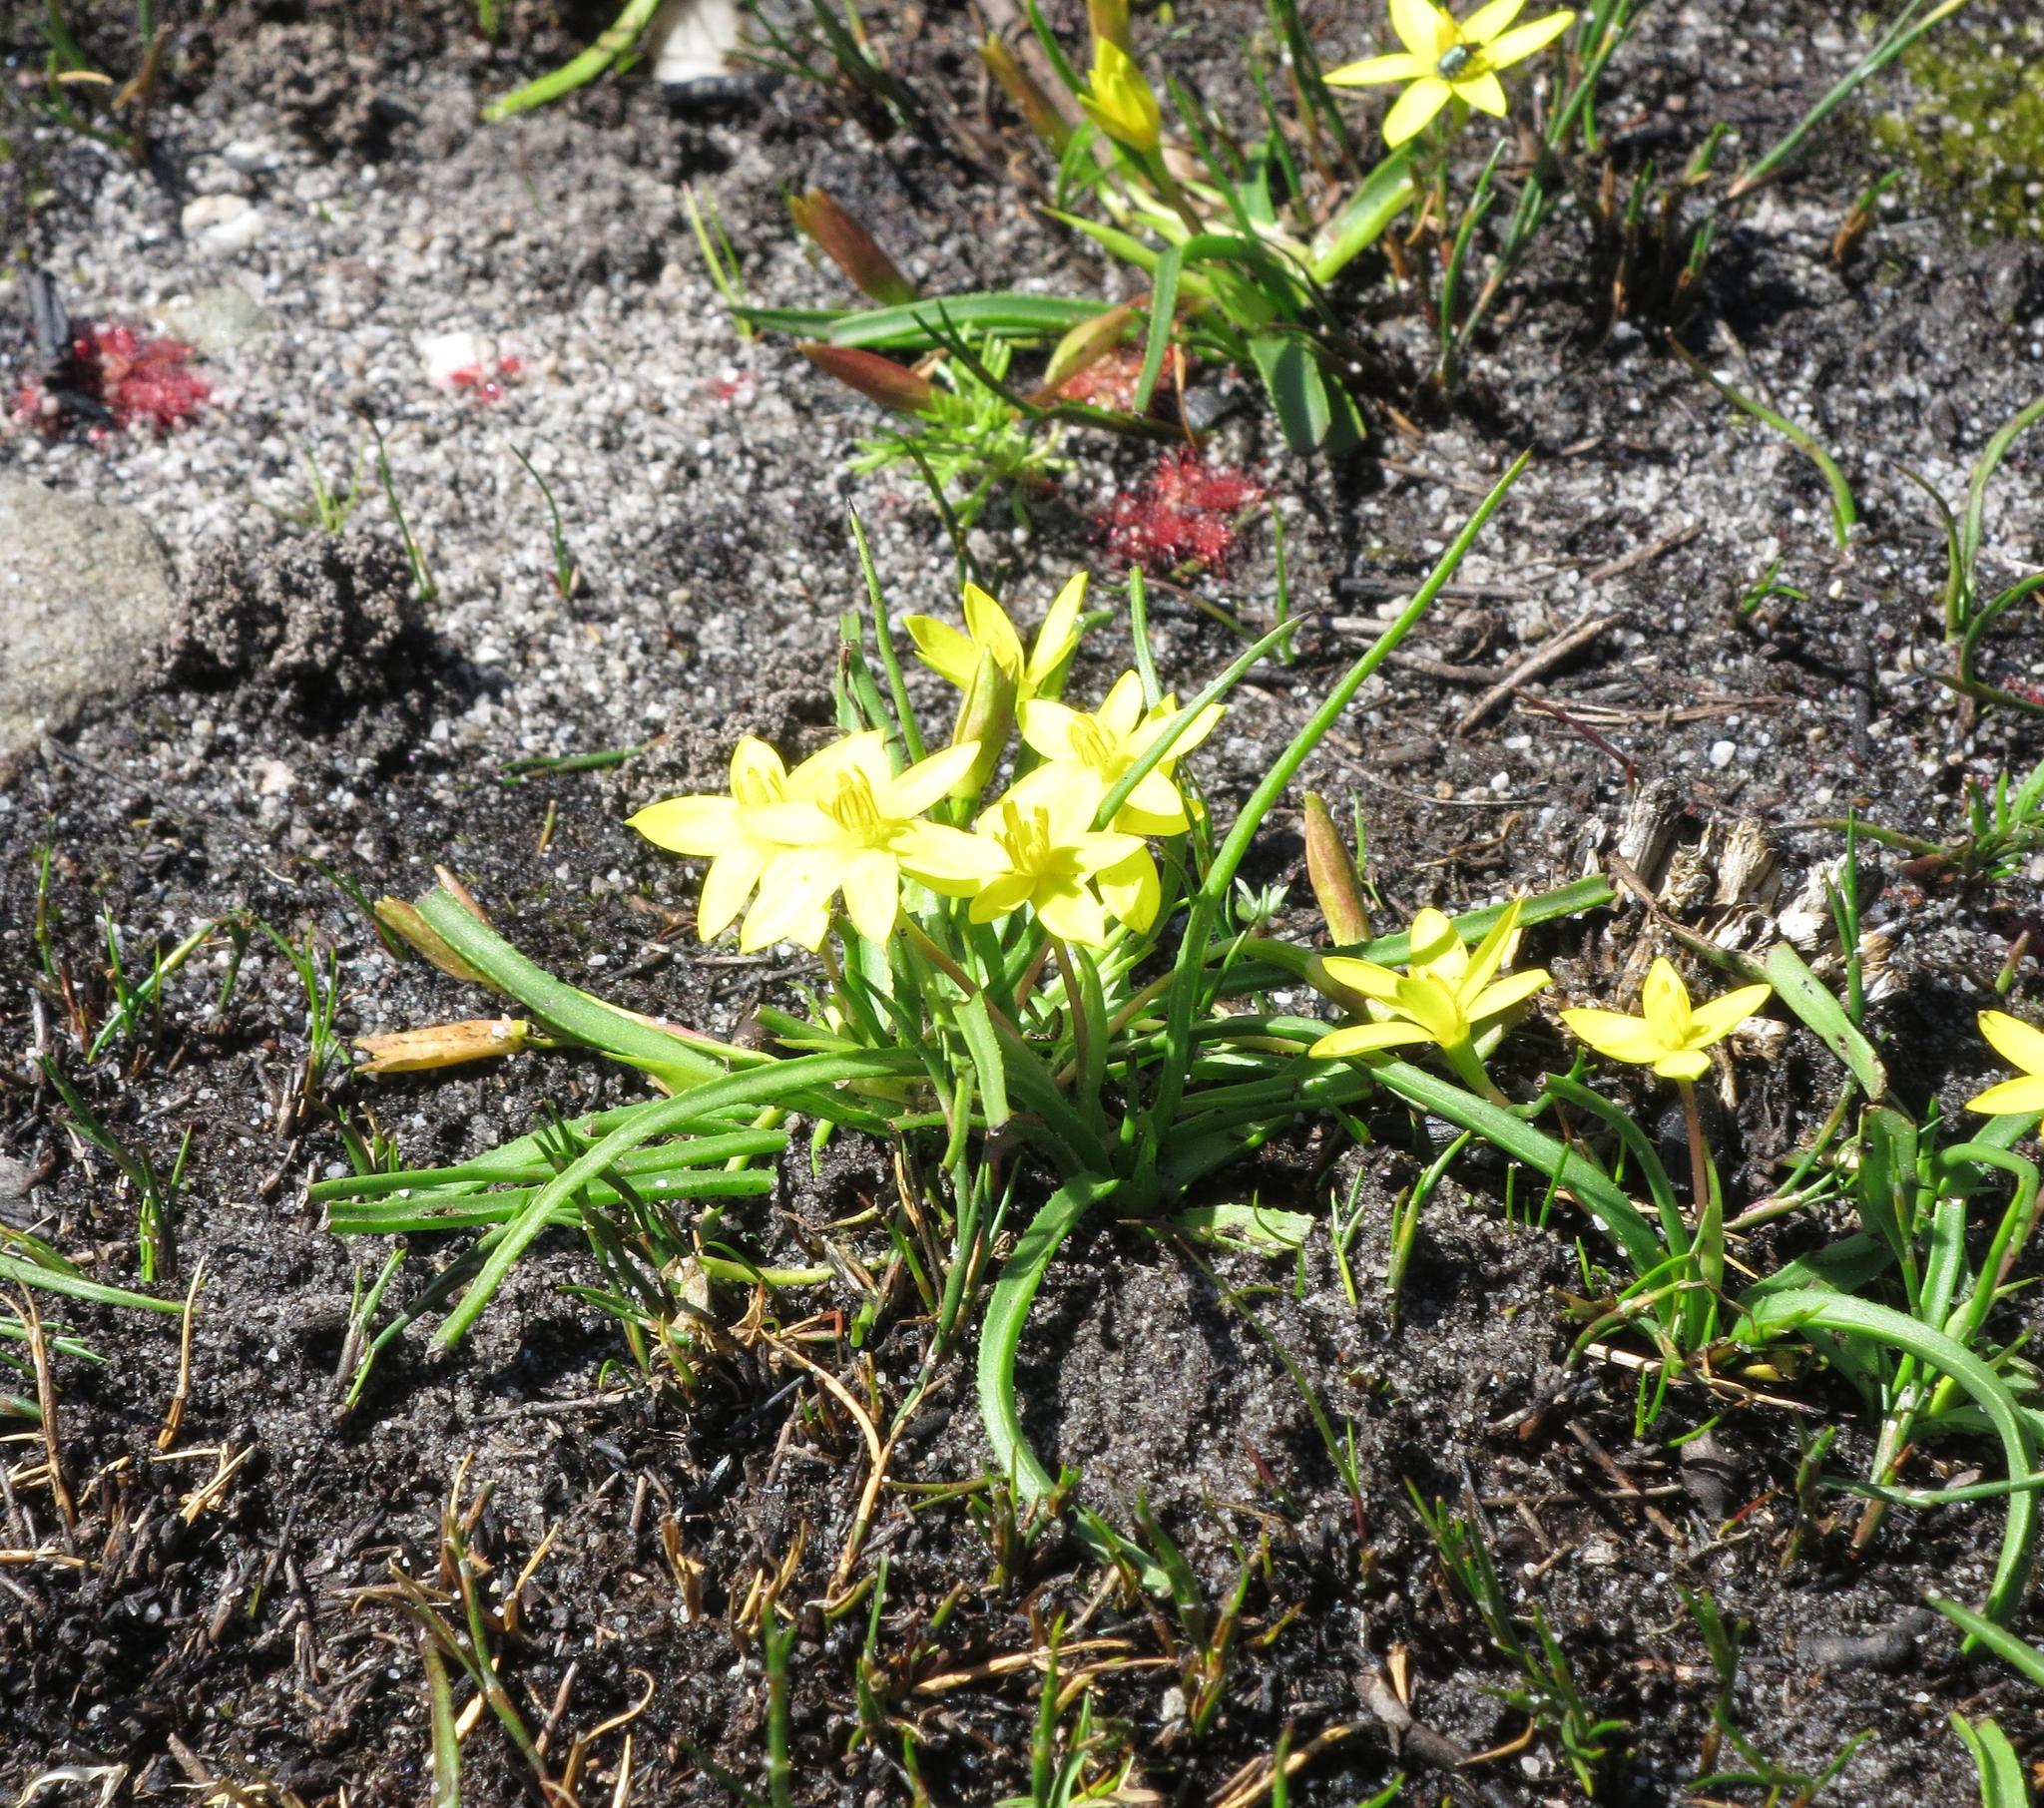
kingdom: Plantae
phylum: Tracheophyta
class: Liliopsida
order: Asparagales
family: Hypoxidaceae
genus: Pauridia
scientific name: Pauridia monticola
